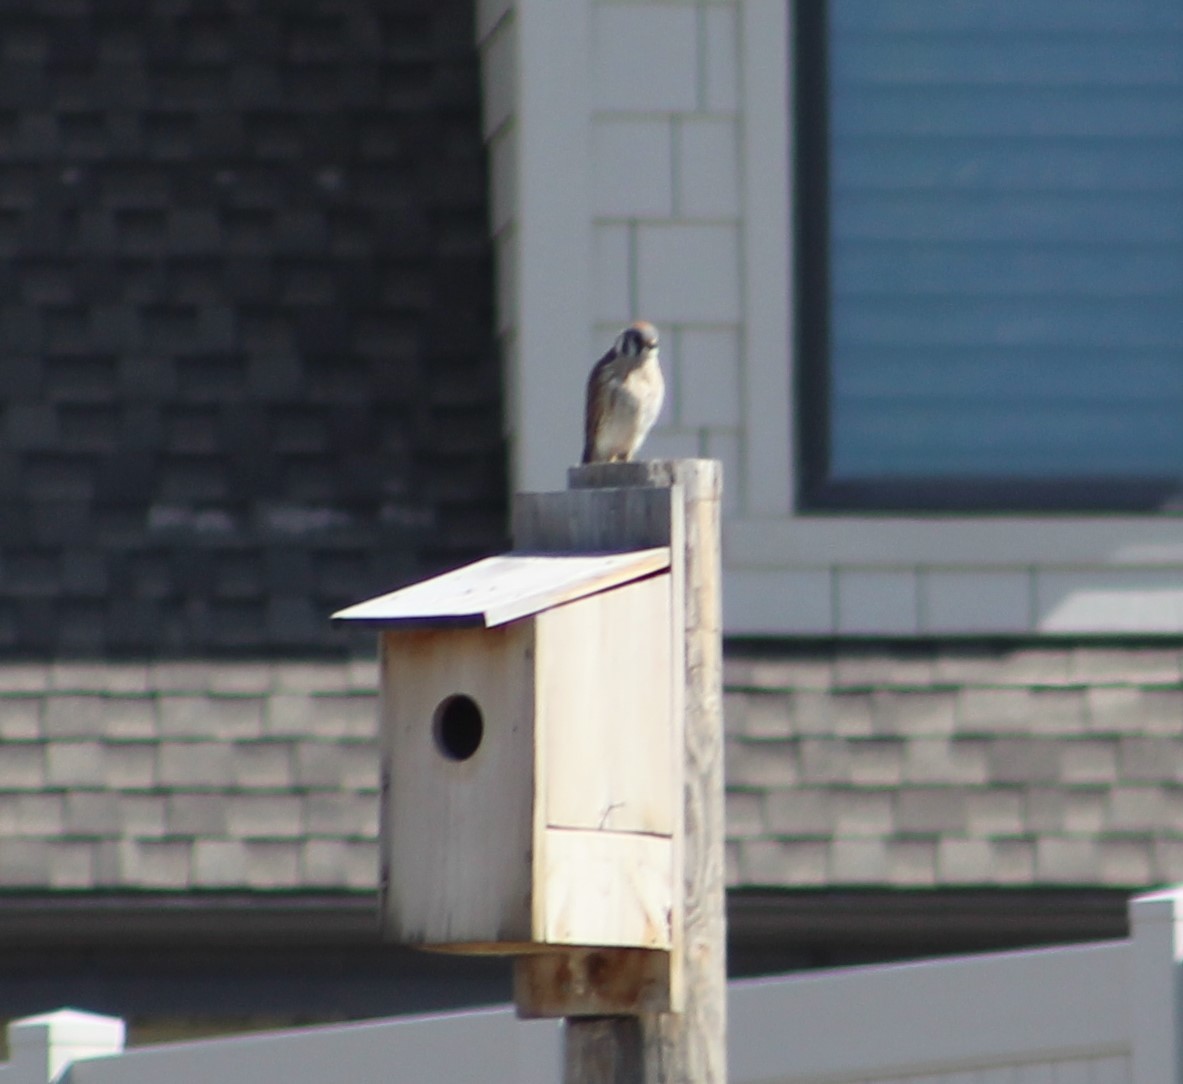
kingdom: Animalia
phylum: Chordata
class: Aves
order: Falconiformes
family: Falconidae
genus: Falco
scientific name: Falco sparverius
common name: American kestrel
